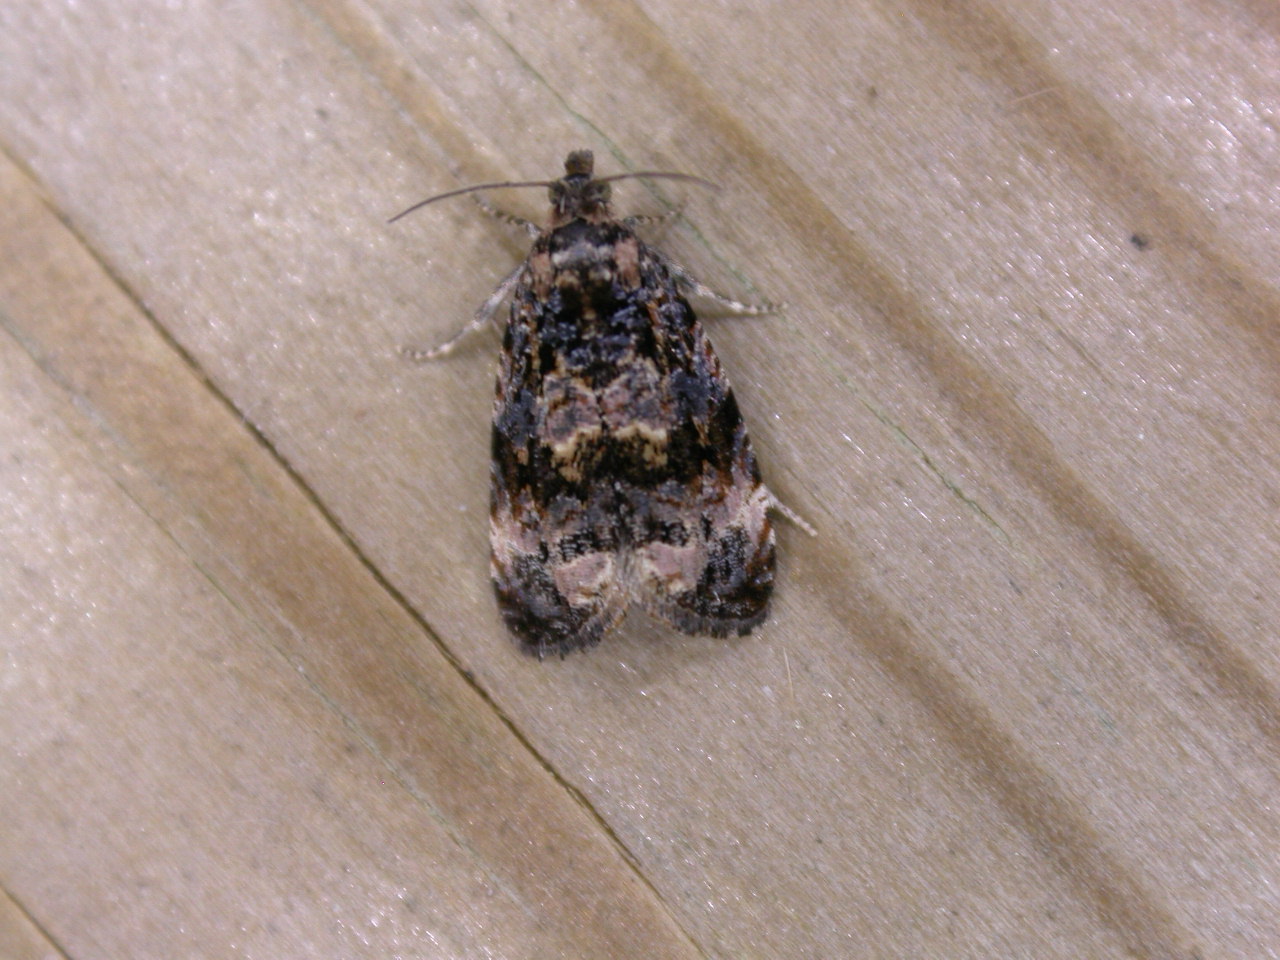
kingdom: Animalia
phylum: Arthropoda
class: Insecta
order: Lepidoptera
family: Tortricidae
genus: Endothenia
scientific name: Endothenia oblongana
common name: Downland marble
